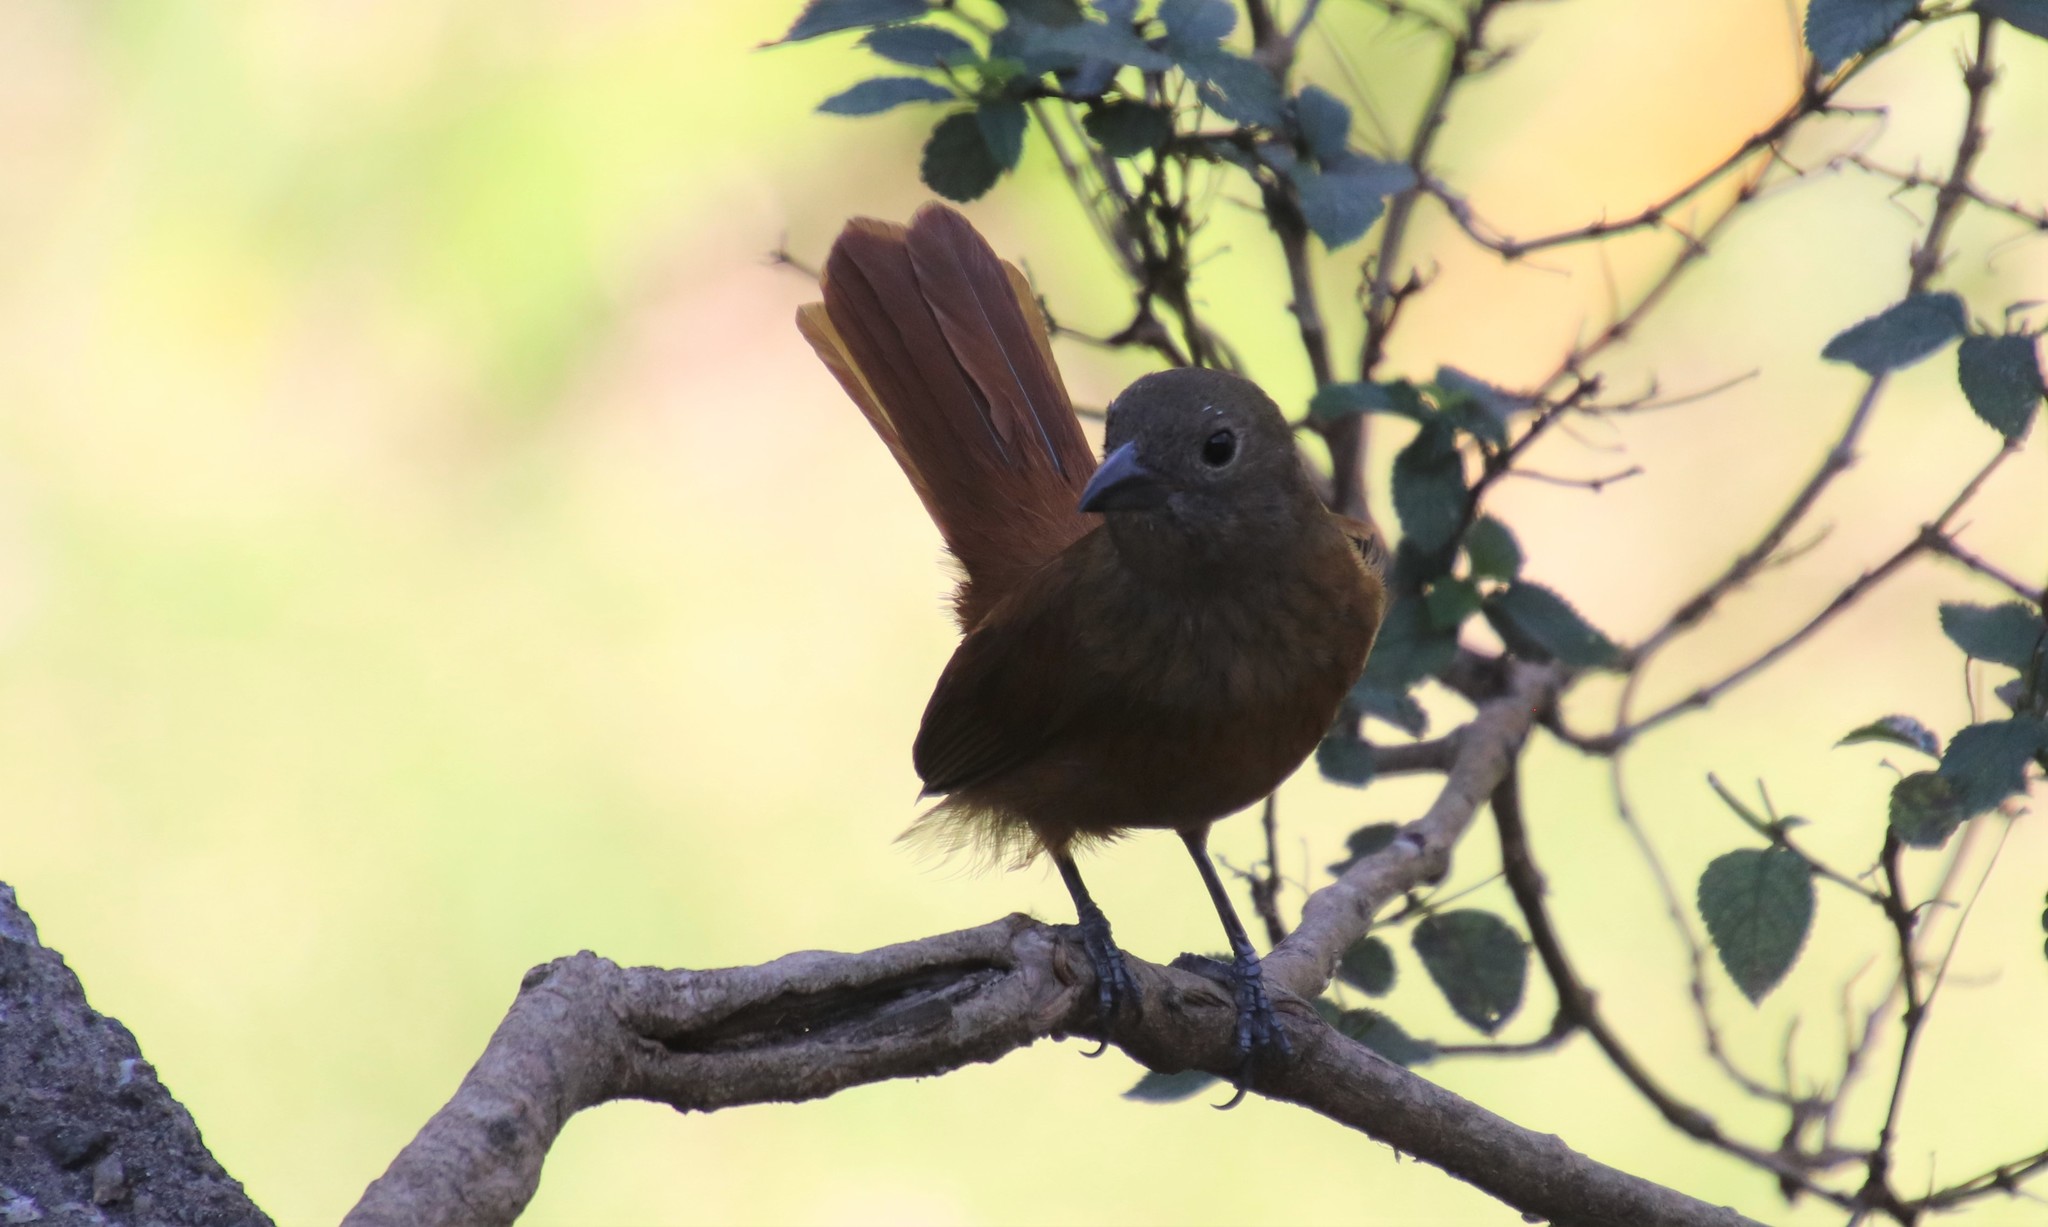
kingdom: Animalia
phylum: Chordata
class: Aves
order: Passeriformes
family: Thraupidae
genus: Tachyphonus
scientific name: Tachyphonus coronatus
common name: Ruby-crowned tanager
